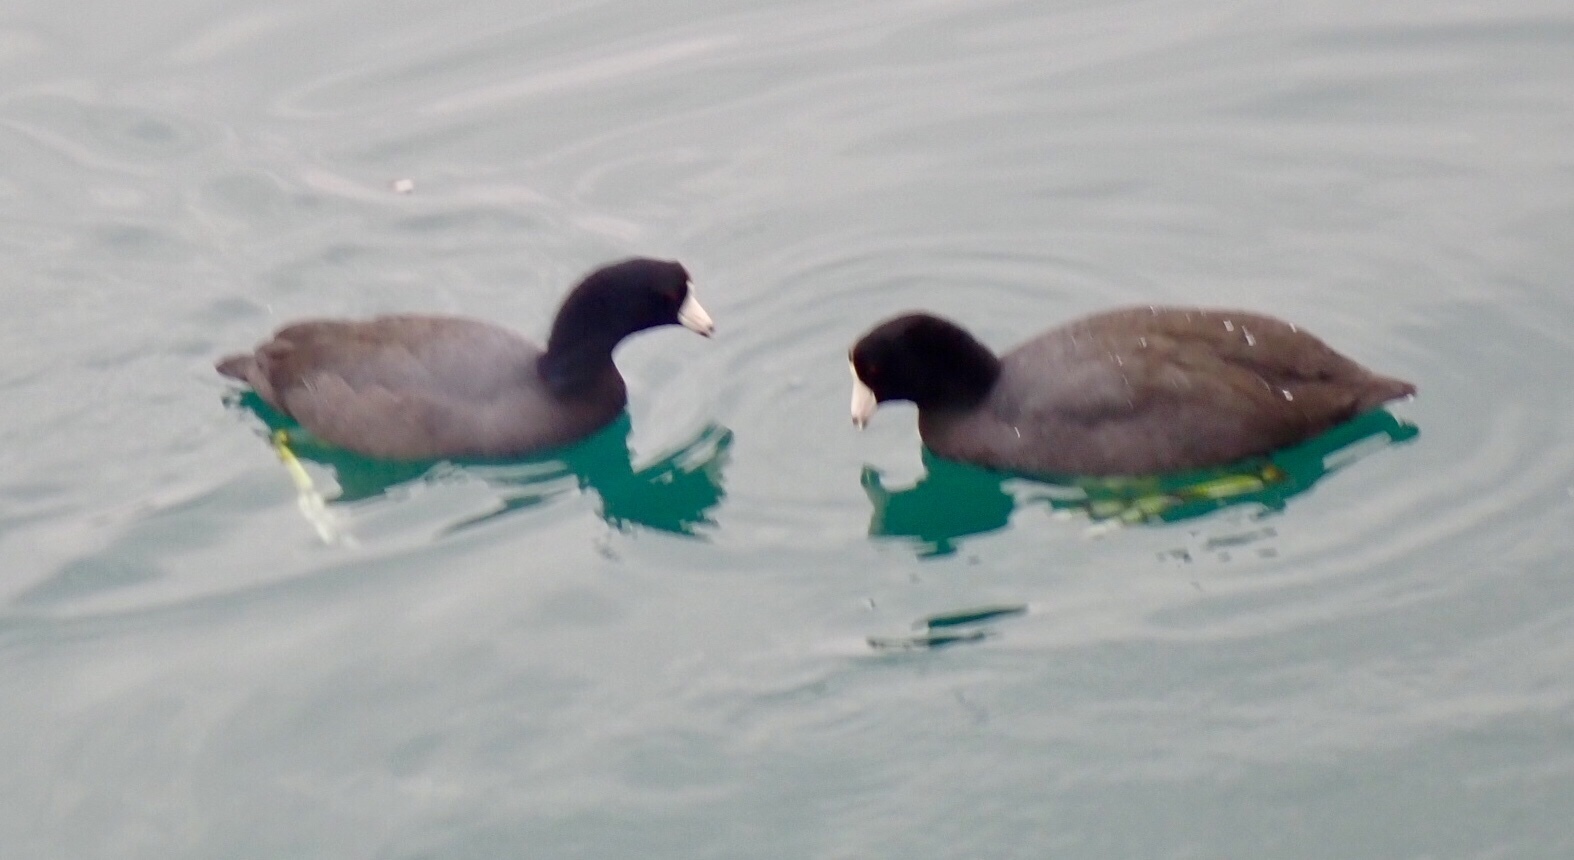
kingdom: Animalia
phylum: Chordata
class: Aves
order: Gruiformes
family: Rallidae
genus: Fulica
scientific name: Fulica americana
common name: American coot
